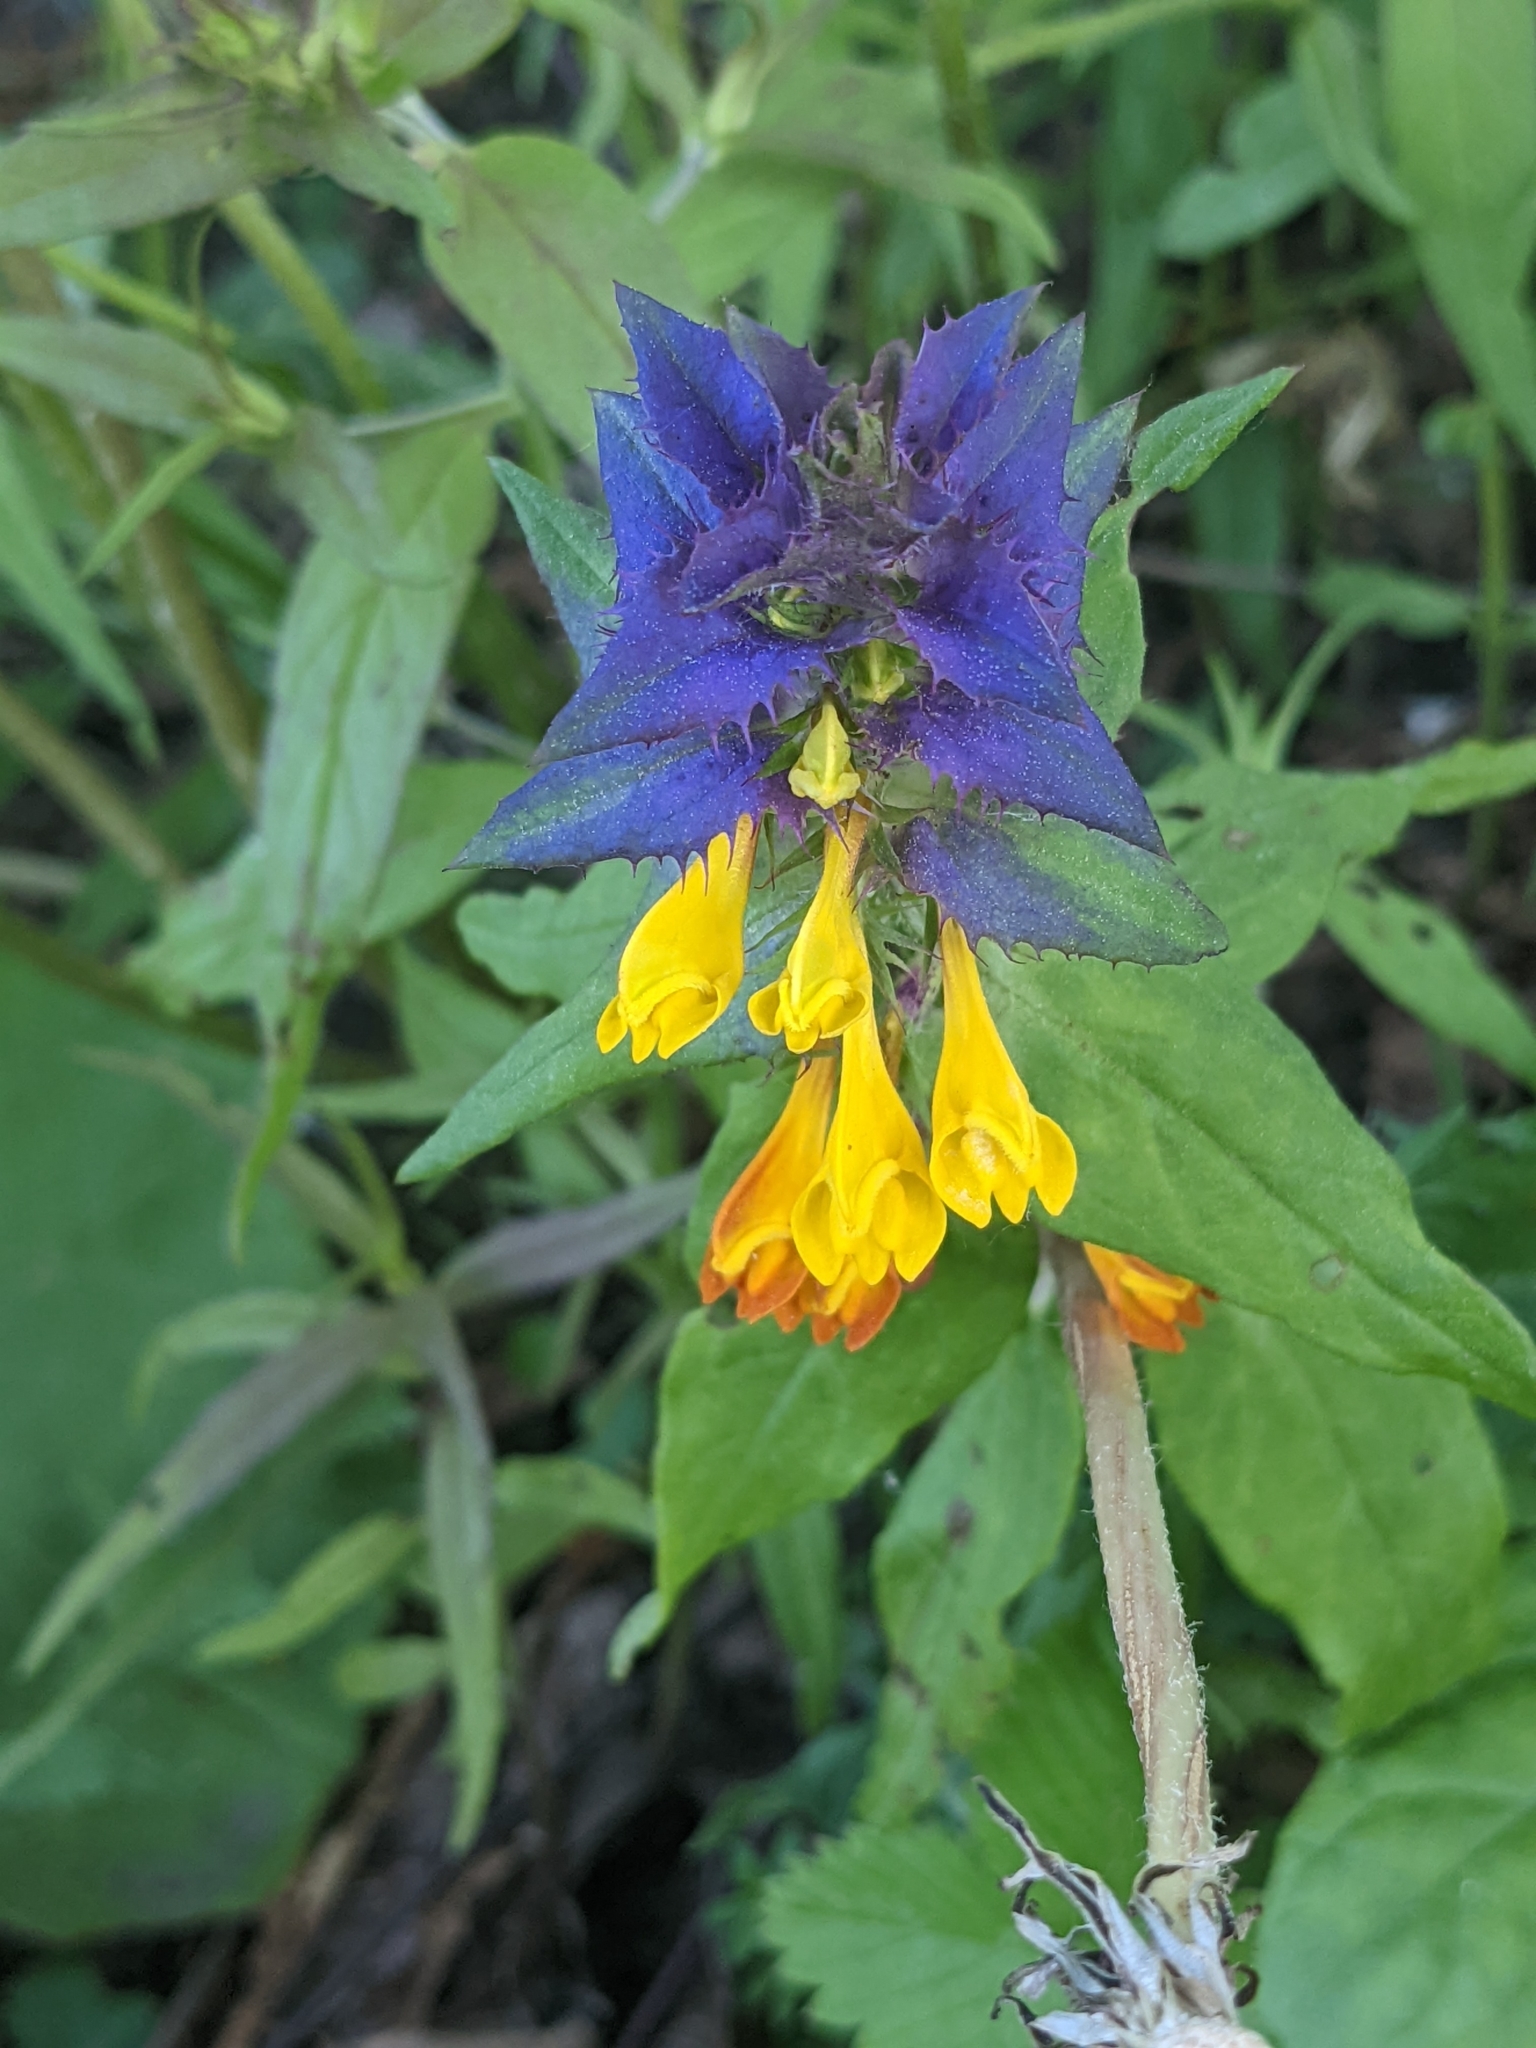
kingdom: Plantae
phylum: Tracheophyta
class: Magnoliopsida
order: Lamiales
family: Orobanchaceae
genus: Melampyrum
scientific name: Melampyrum nemorosum
